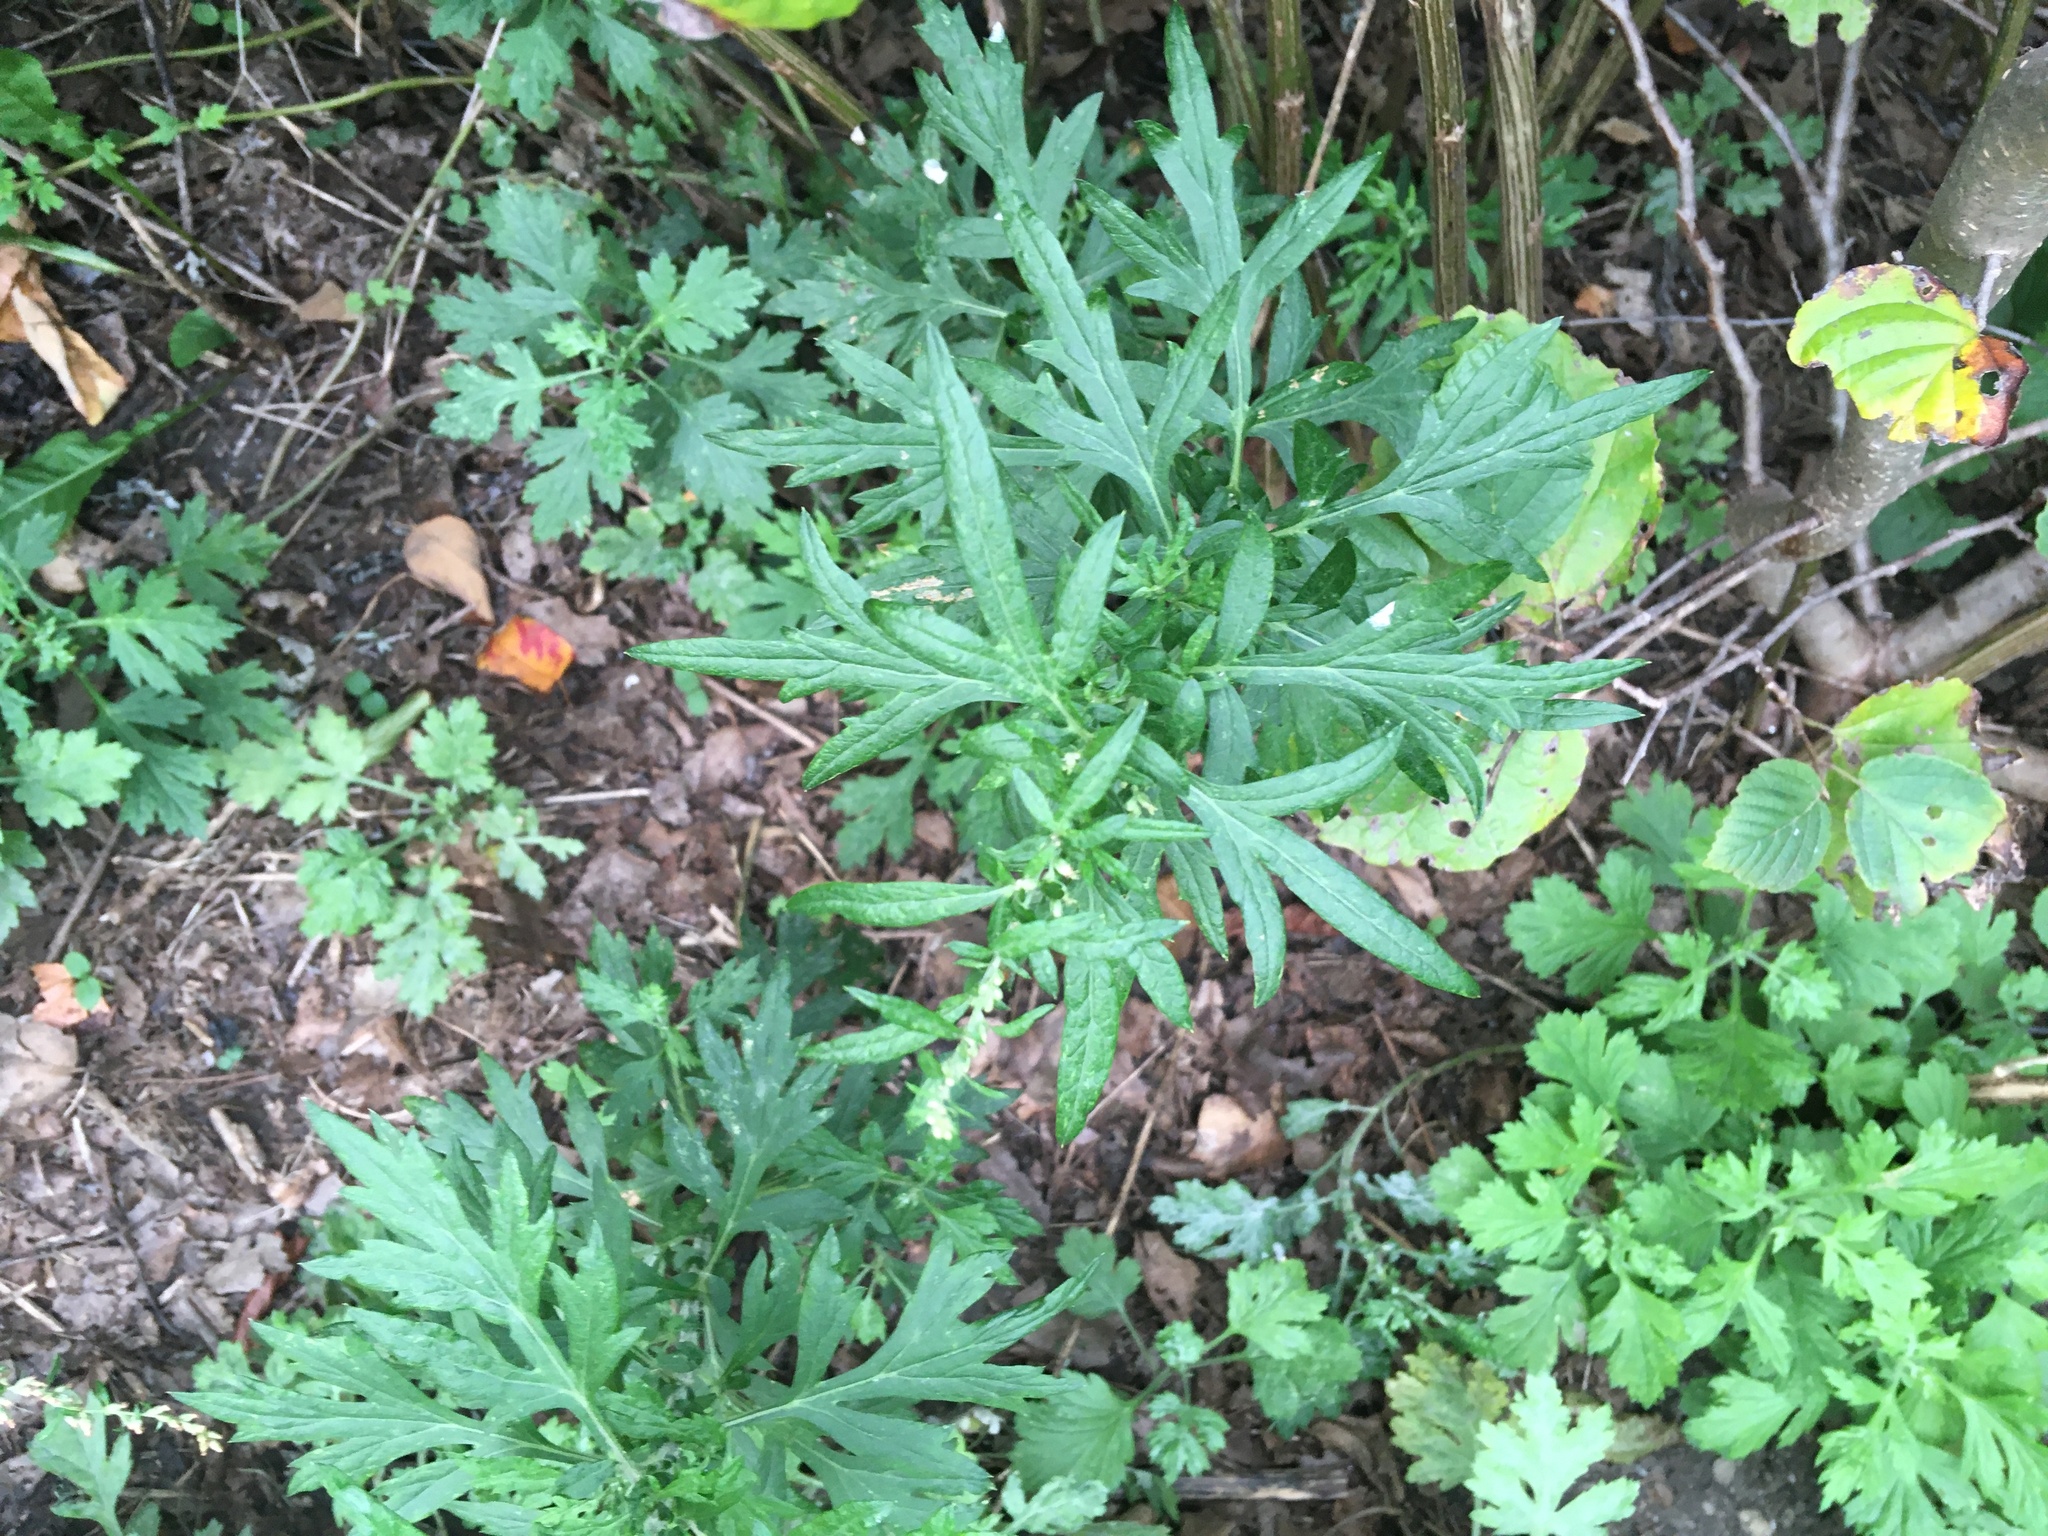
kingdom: Plantae
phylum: Tracheophyta
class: Magnoliopsida
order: Asterales
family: Asteraceae
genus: Artemisia
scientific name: Artemisia vulgaris
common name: Mugwort
